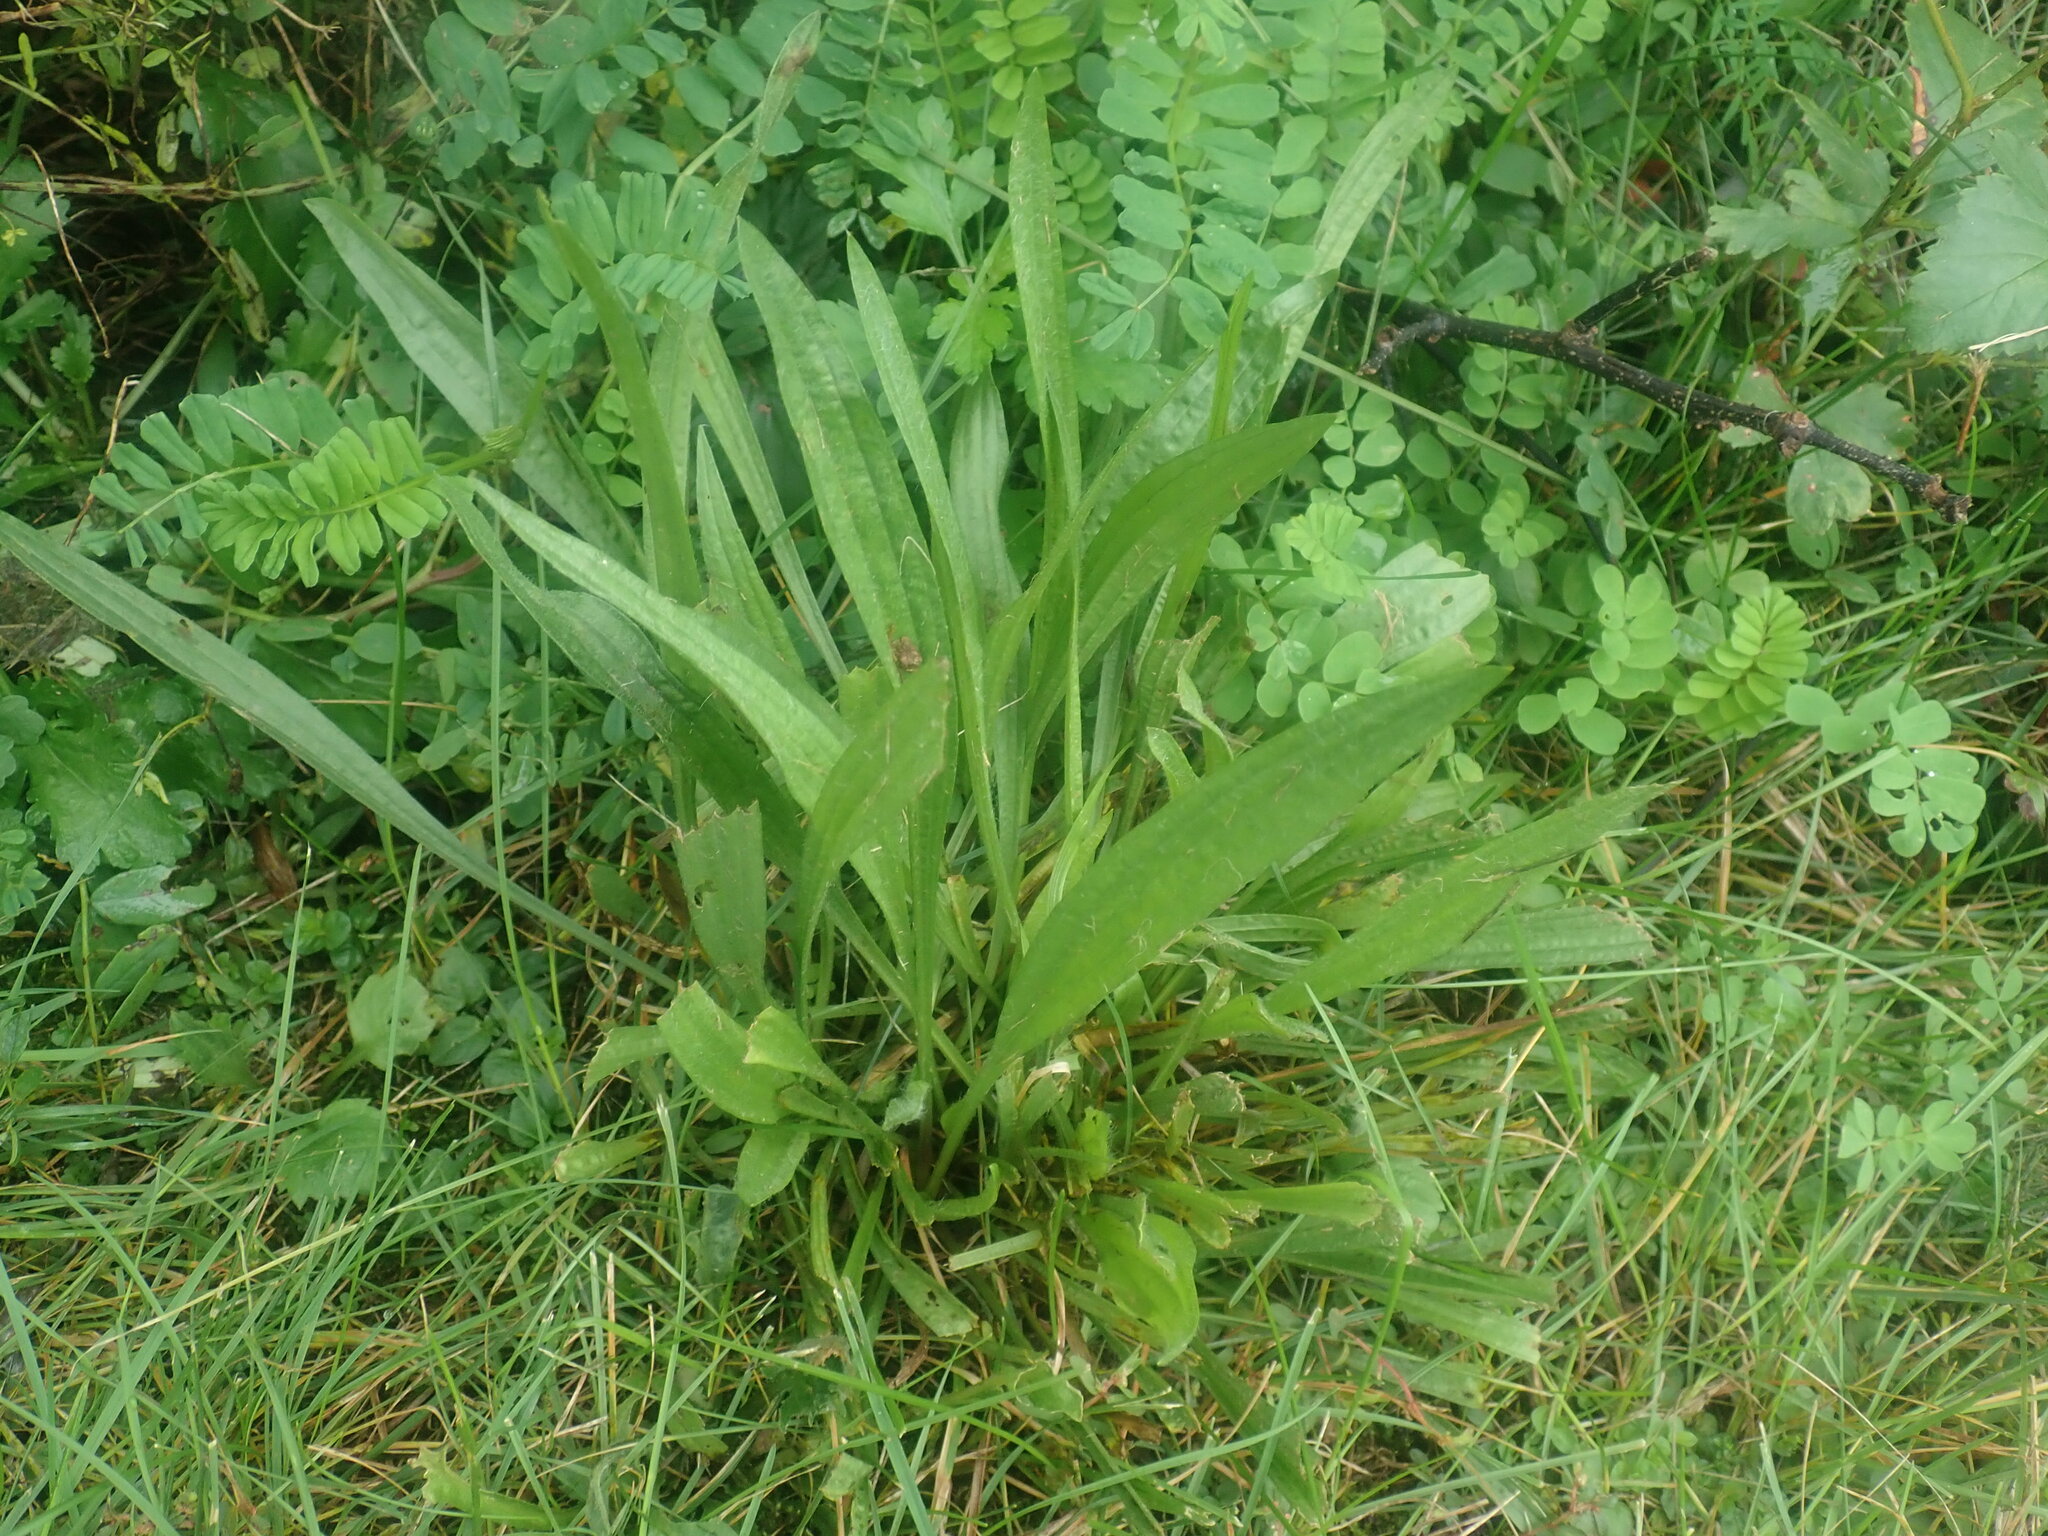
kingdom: Plantae
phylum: Tracheophyta
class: Magnoliopsida
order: Lamiales
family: Plantaginaceae
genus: Plantago
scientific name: Plantago lanceolata
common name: Ribwort plantain
